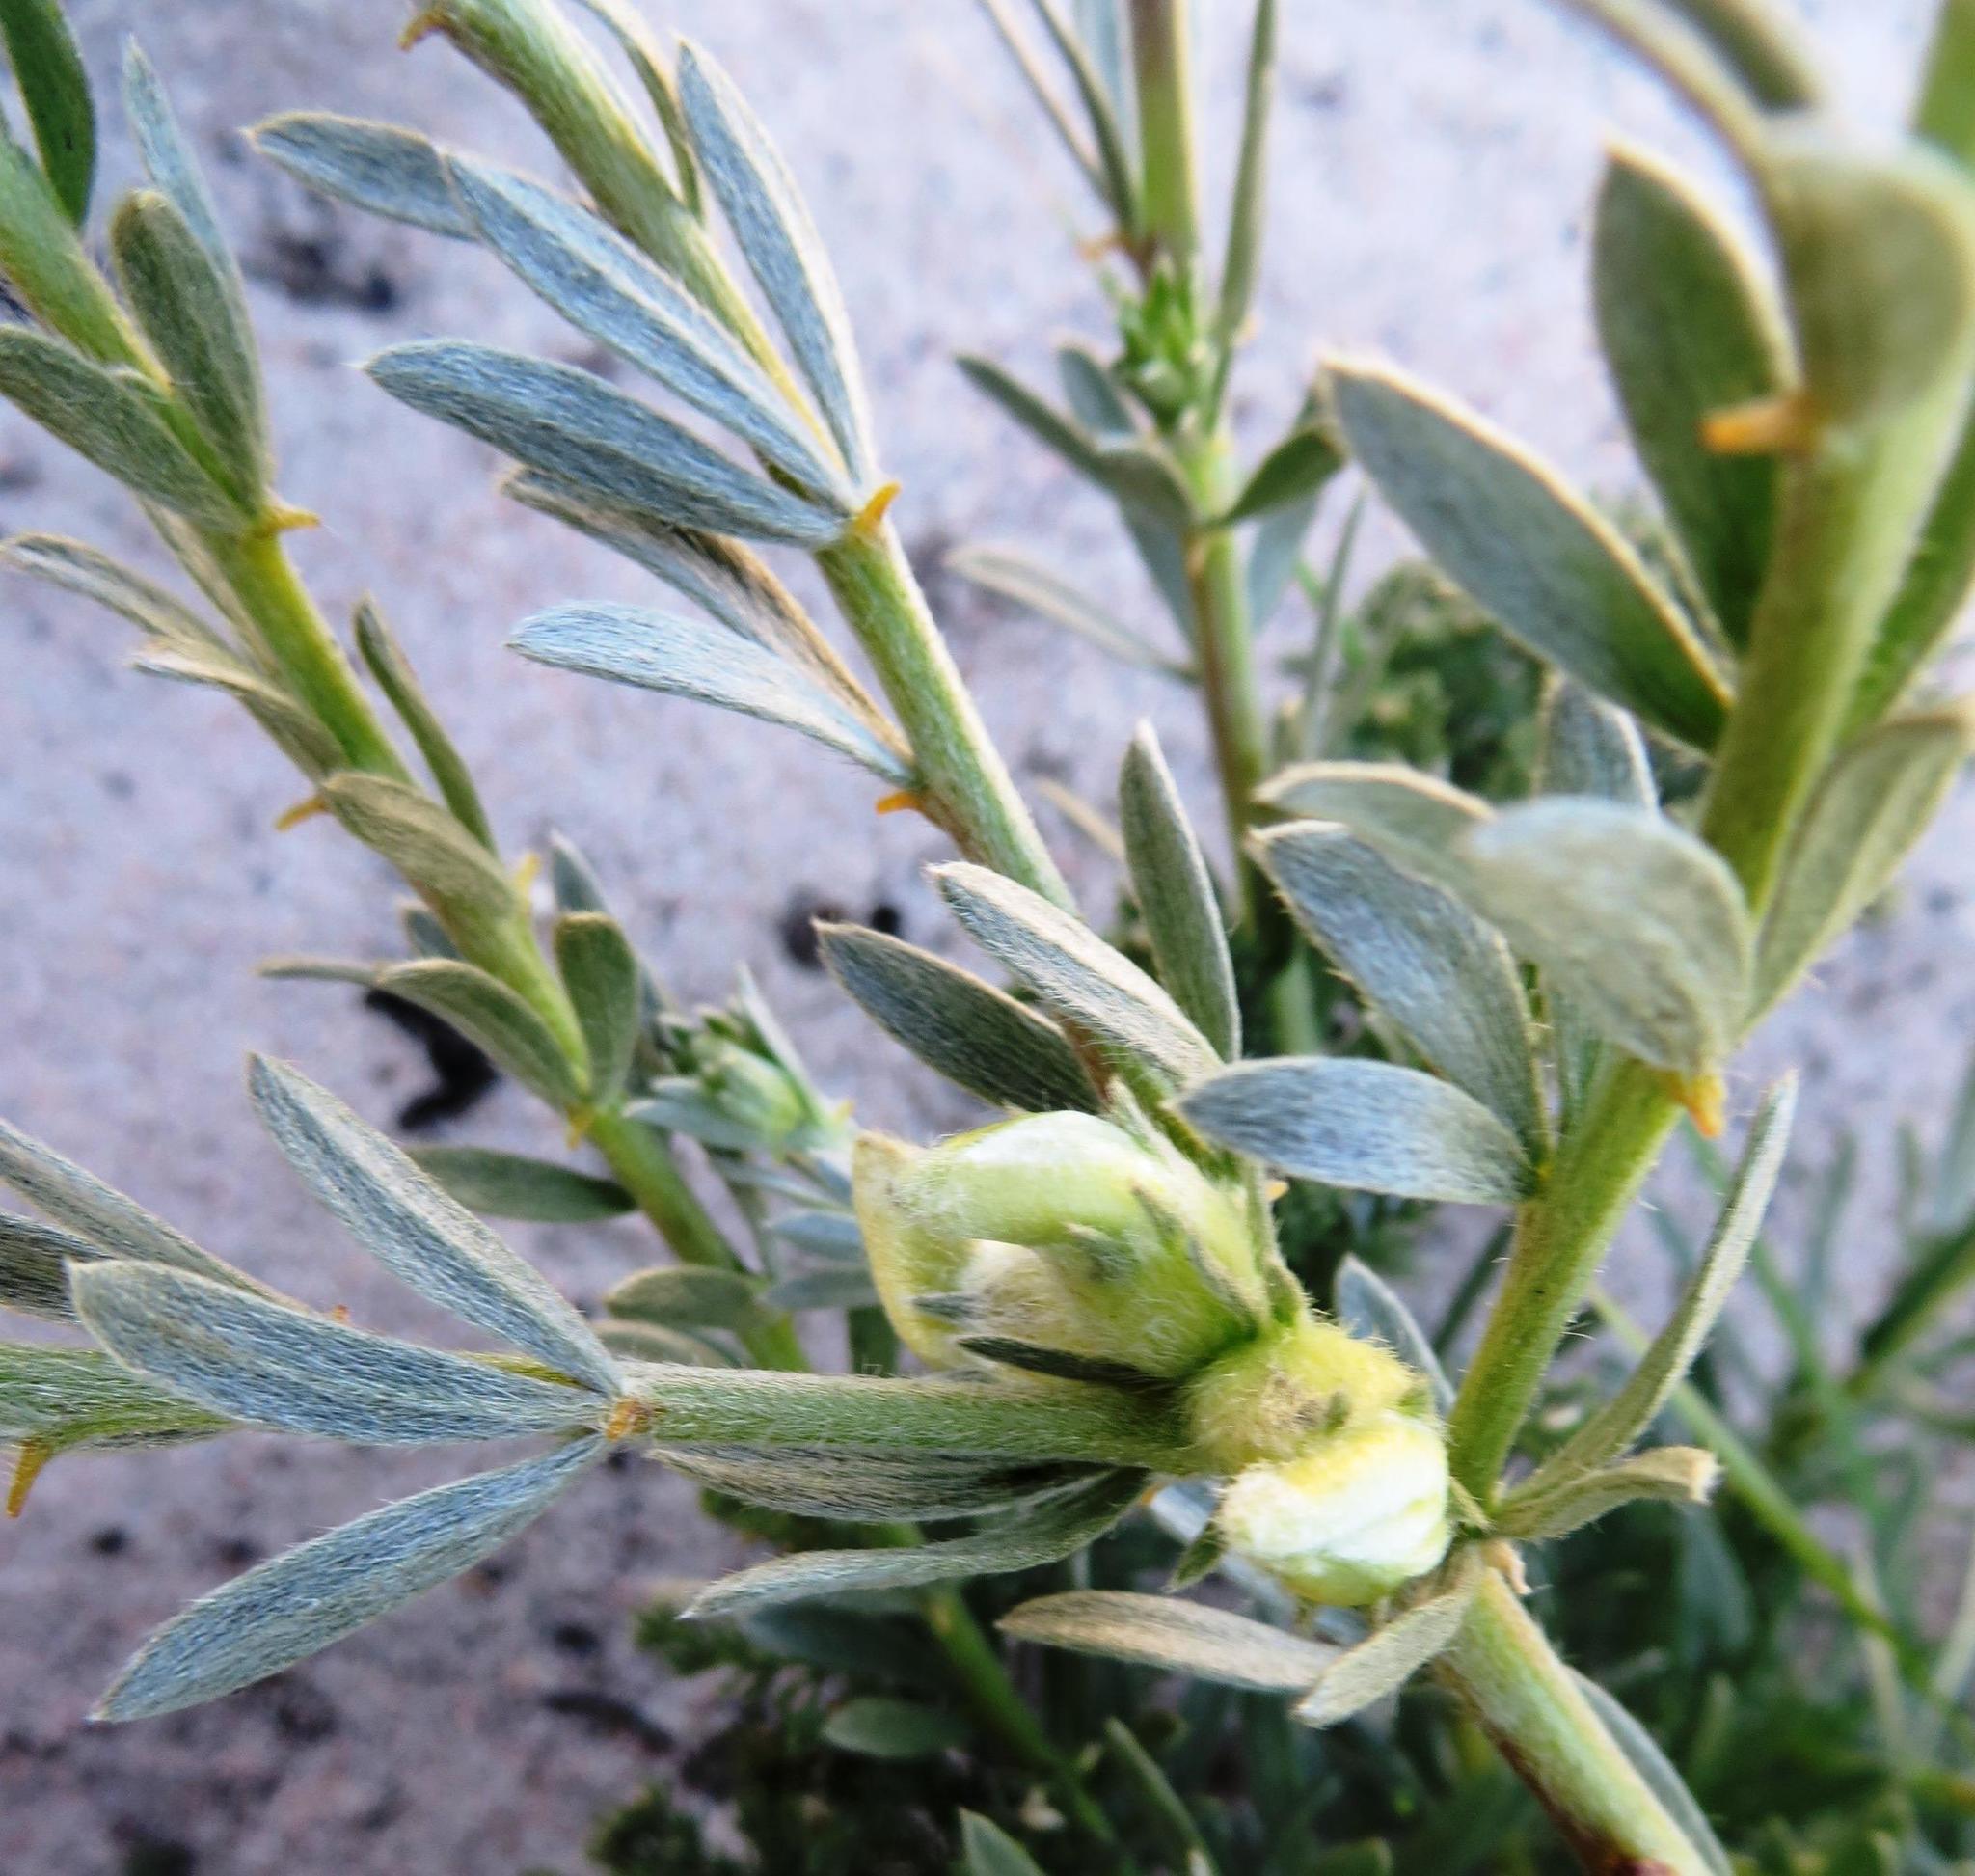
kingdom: Plantae
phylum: Tracheophyta
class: Magnoliopsida
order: Fabales
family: Fabaceae
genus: Aspalathus
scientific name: Aspalathus ternata
